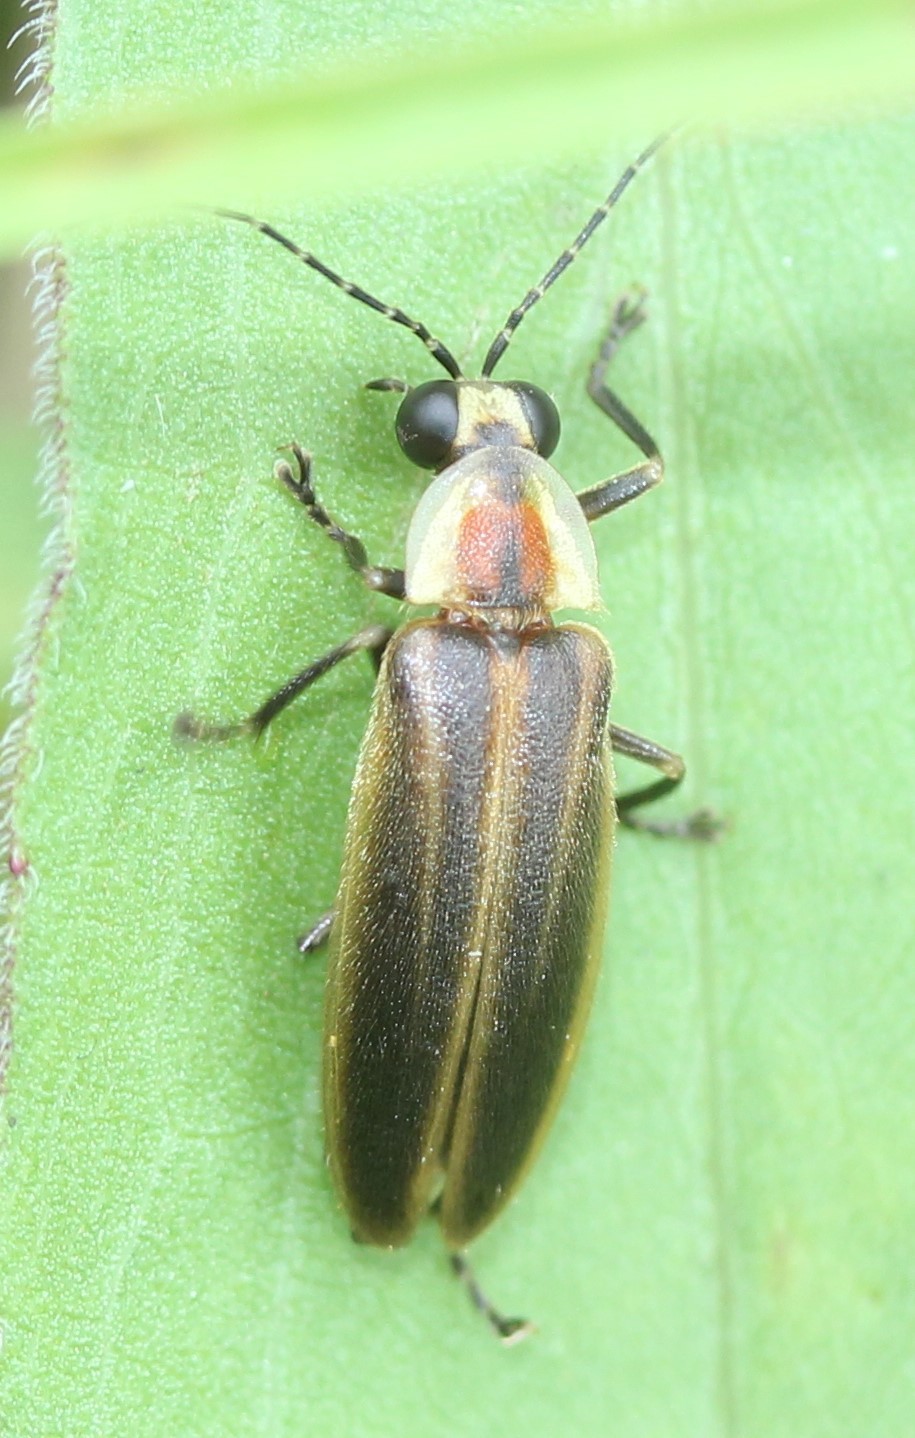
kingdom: Animalia
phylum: Arthropoda
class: Insecta
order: Coleoptera
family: Lampyridae
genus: Photuris
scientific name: Photuris
